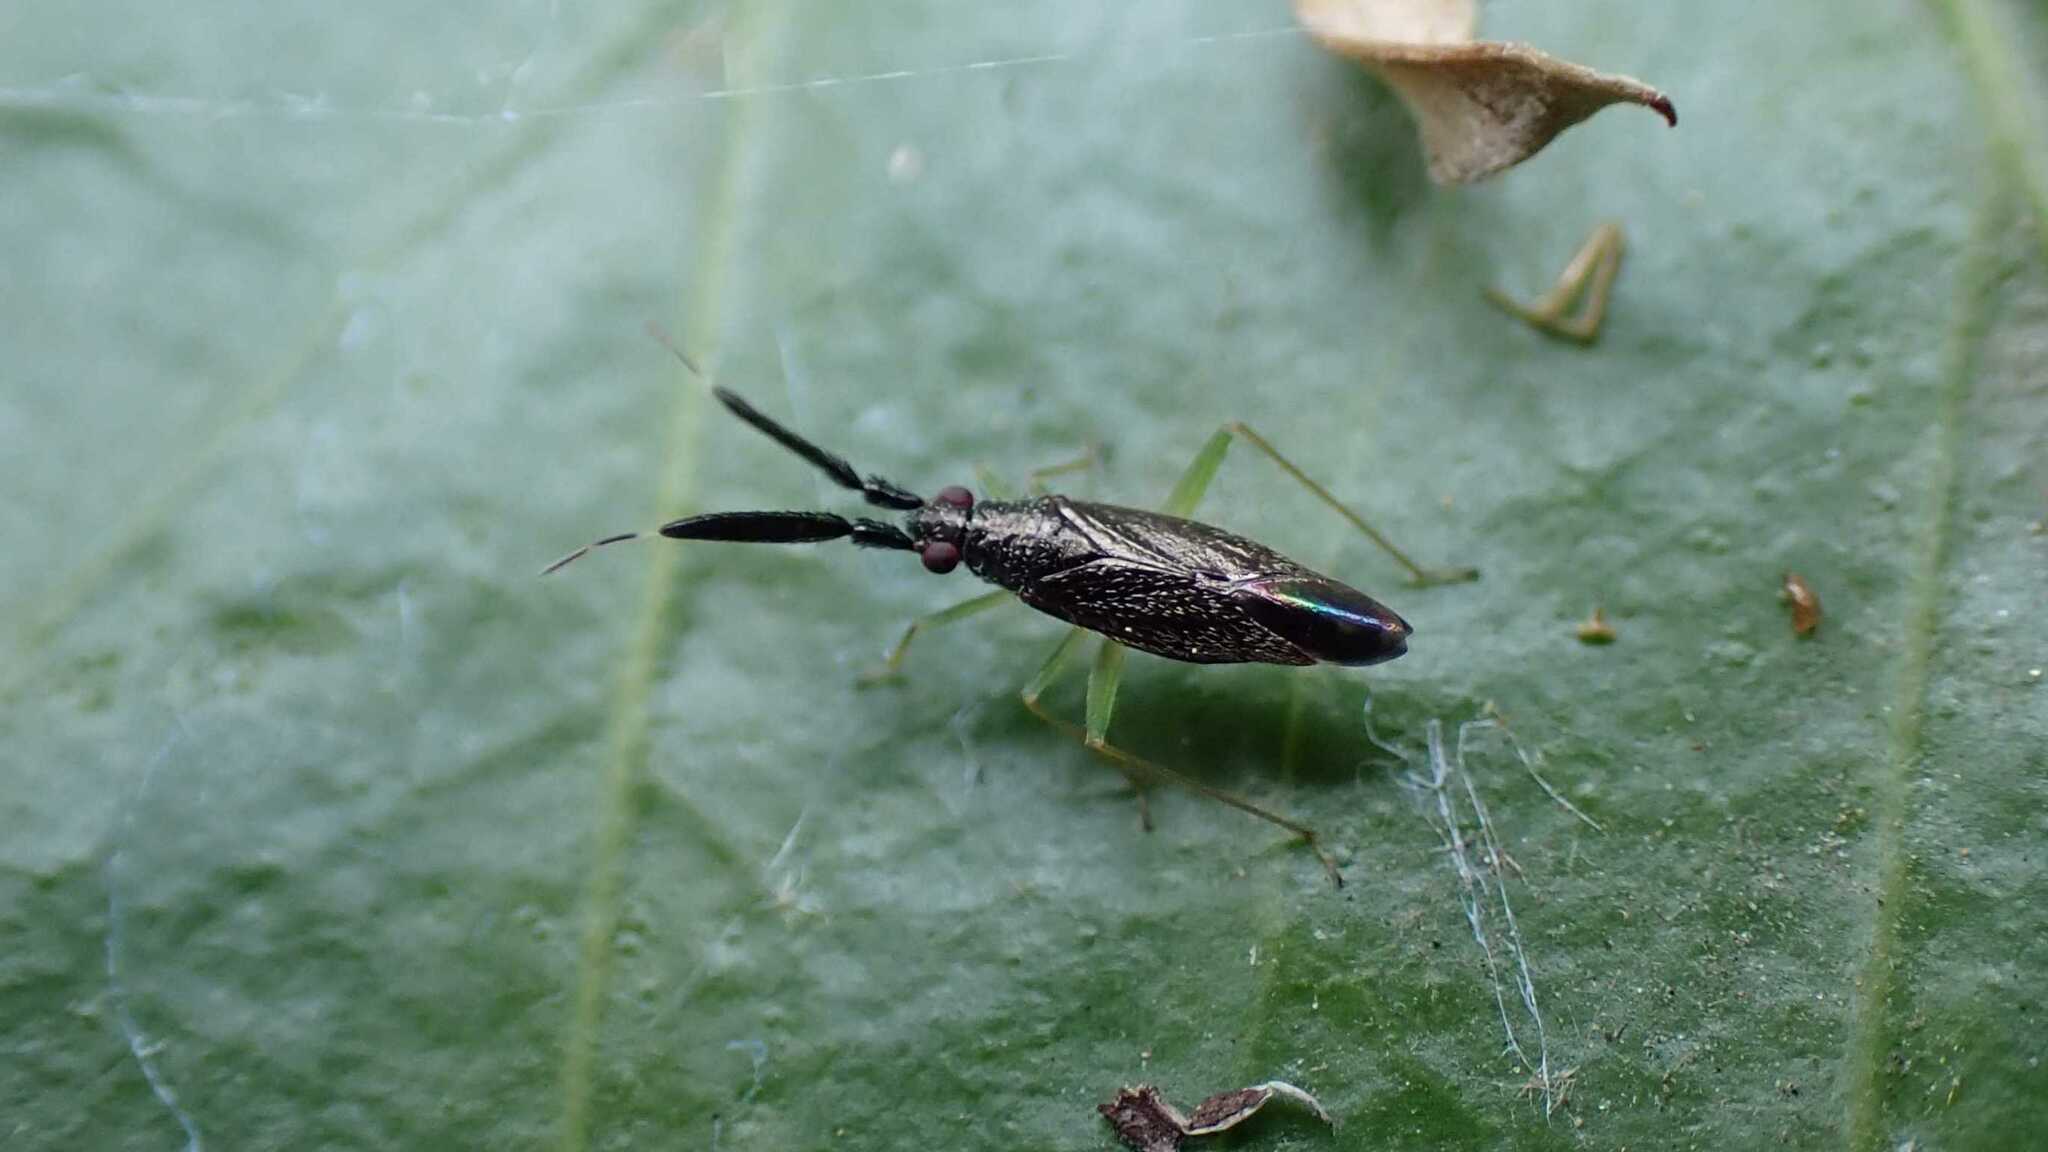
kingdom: Animalia
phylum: Arthropoda
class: Insecta
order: Hemiptera
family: Miridae
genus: Heterotoma
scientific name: Heterotoma planicornis
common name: Plant bug
